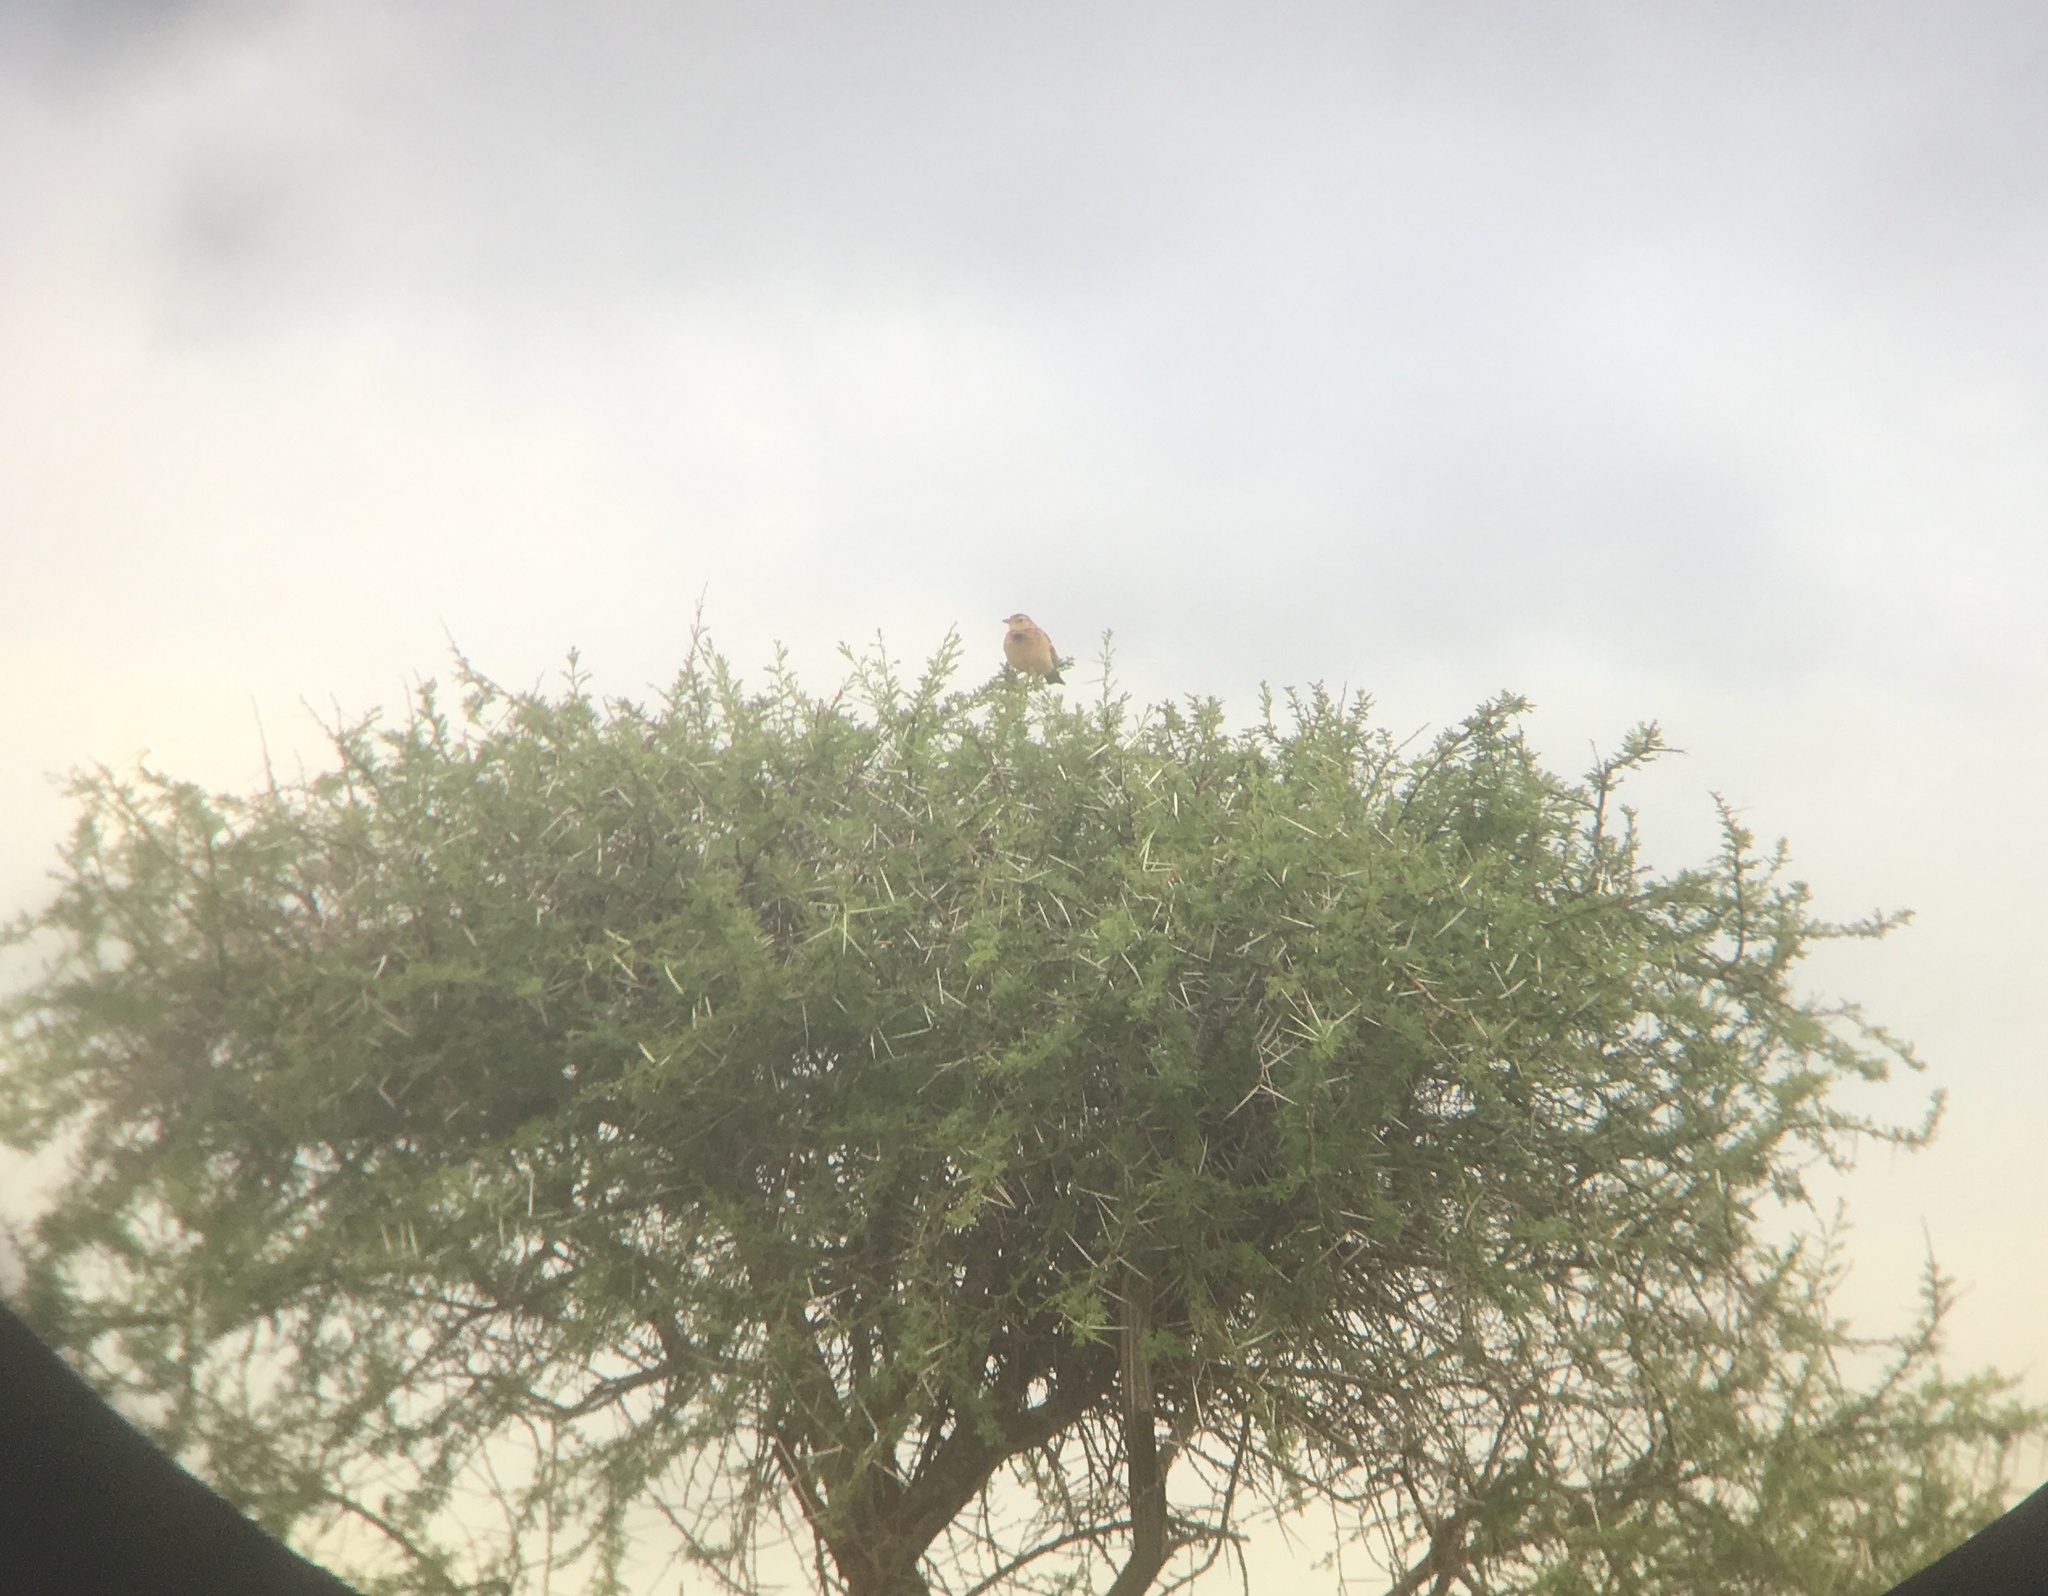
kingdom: Animalia
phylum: Chordata
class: Aves
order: Passeriformes
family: Alaudidae
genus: Mirafra
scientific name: Mirafra africana
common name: Rufous-naped lark
